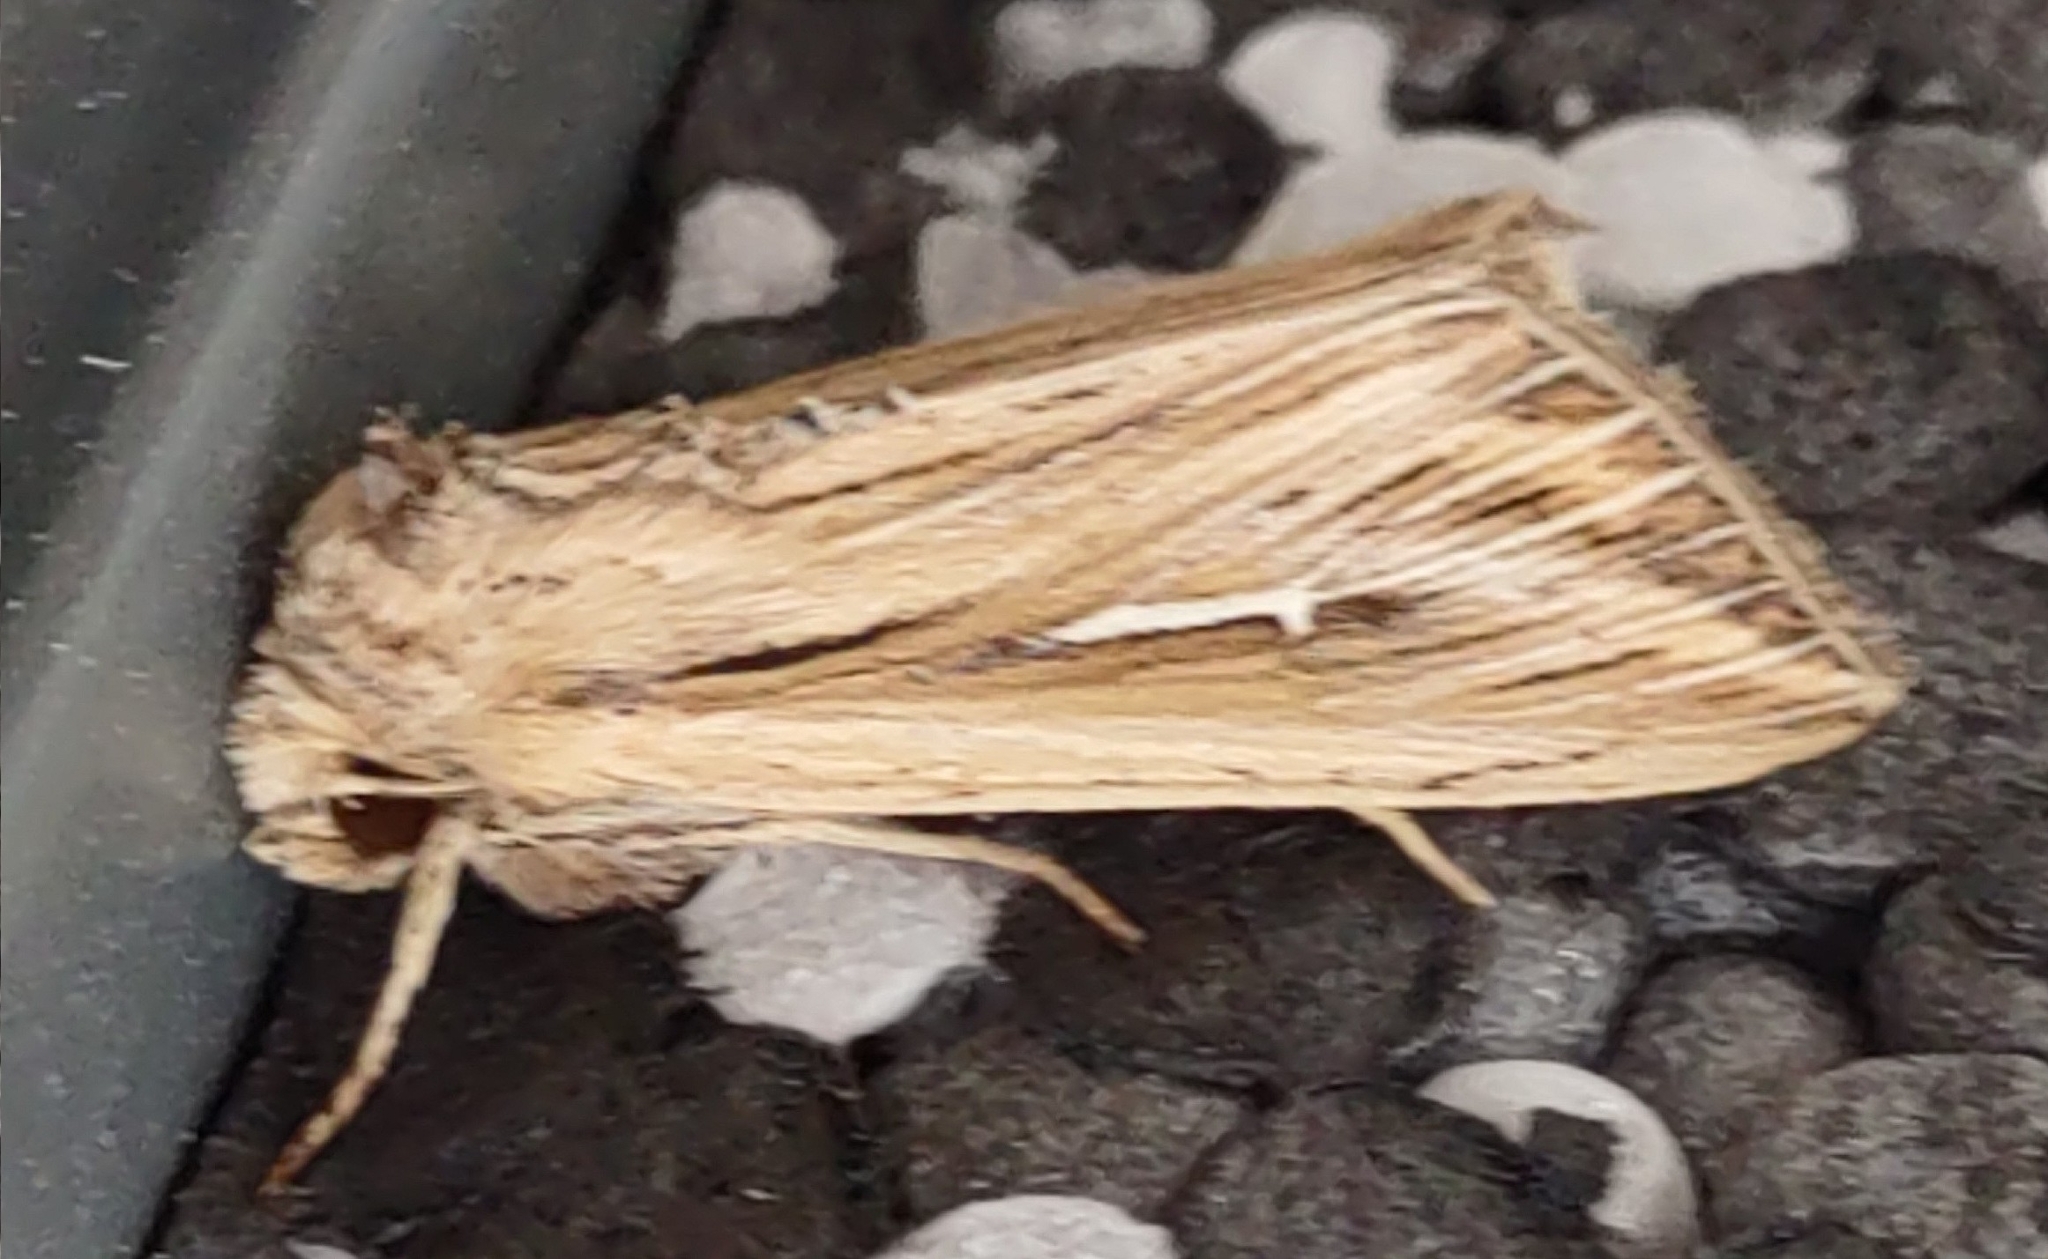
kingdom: Animalia
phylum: Arthropoda
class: Insecta
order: Lepidoptera
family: Noctuidae
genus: Mythimna
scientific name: Mythimna l-album
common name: L-album wainscot
